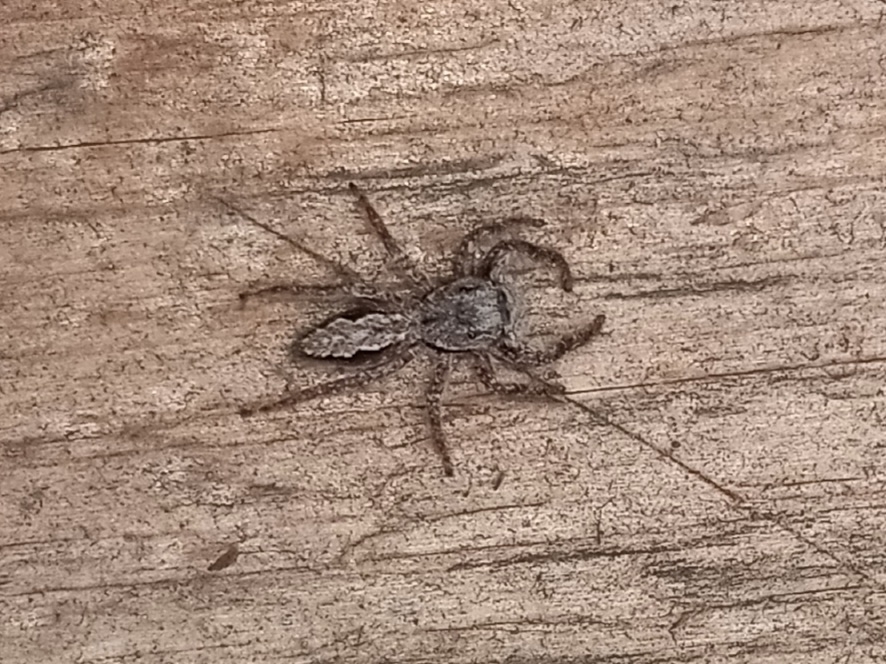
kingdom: Animalia
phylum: Arthropoda
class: Arachnida
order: Araneae
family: Salticidae
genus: Platycryptus
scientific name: Platycryptus undatus
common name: Tan jumping spider
